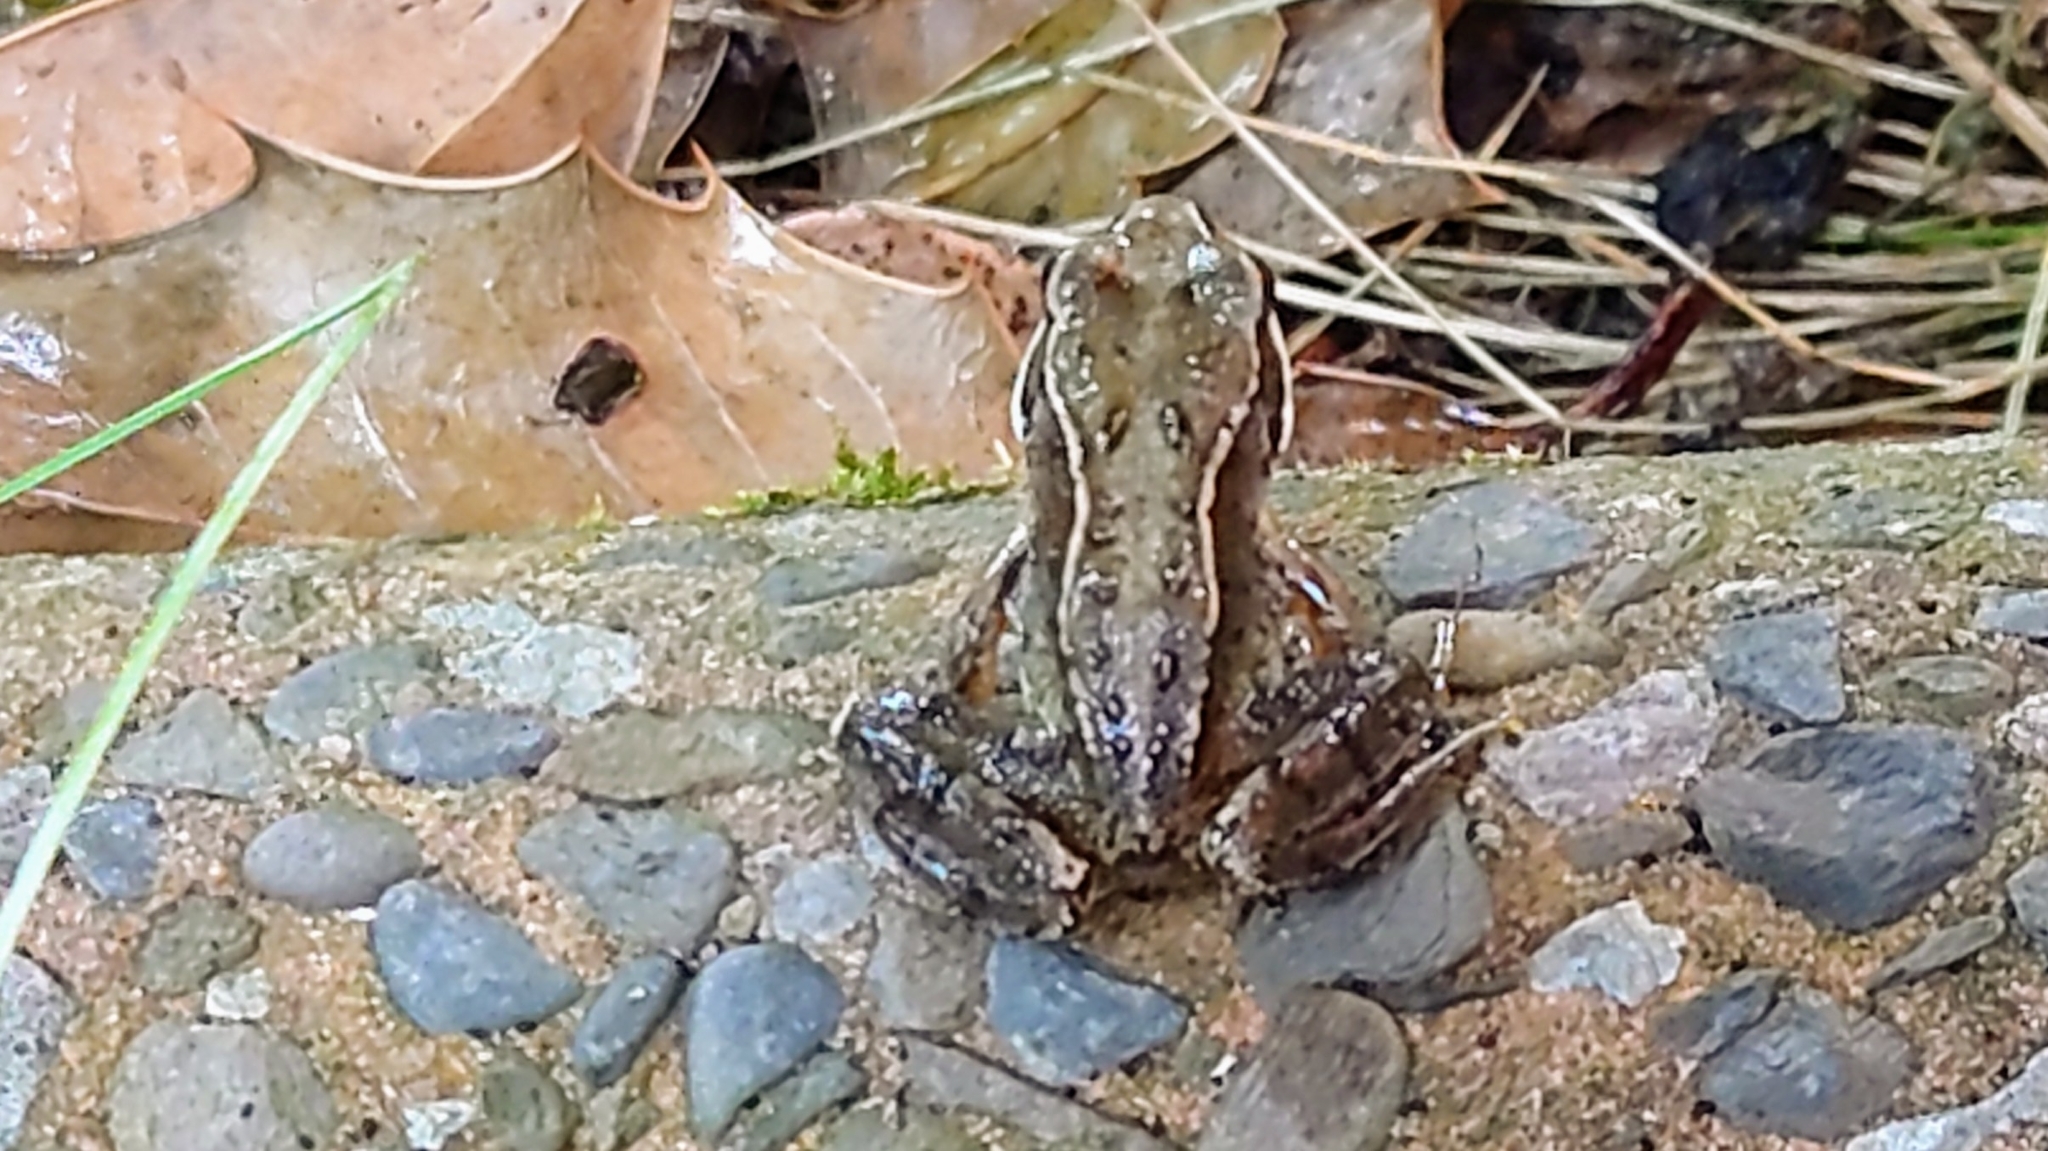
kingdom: Animalia
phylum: Chordata
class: Amphibia
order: Anura
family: Ranidae
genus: Rana
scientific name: Rana temporaria
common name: Common frog
